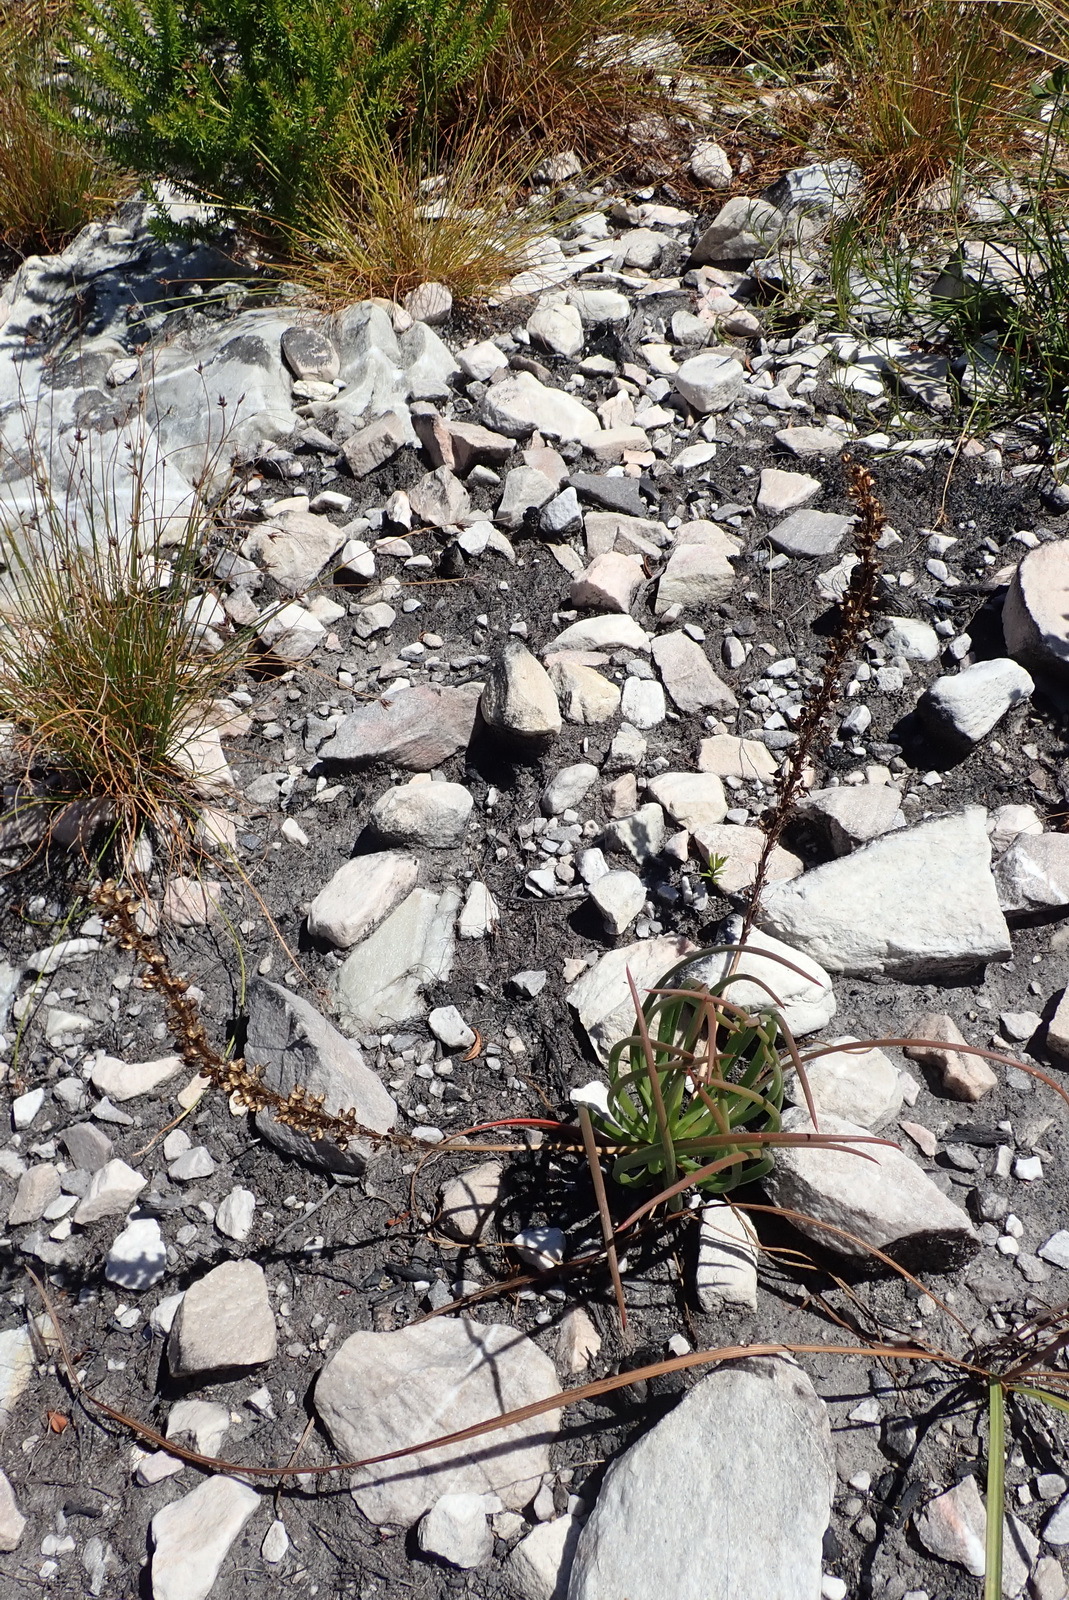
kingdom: Plantae
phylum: Tracheophyta
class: Liliopsida
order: Asparagales
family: Asphodelaceae
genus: Bulbine
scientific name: Bulbine lagopus
